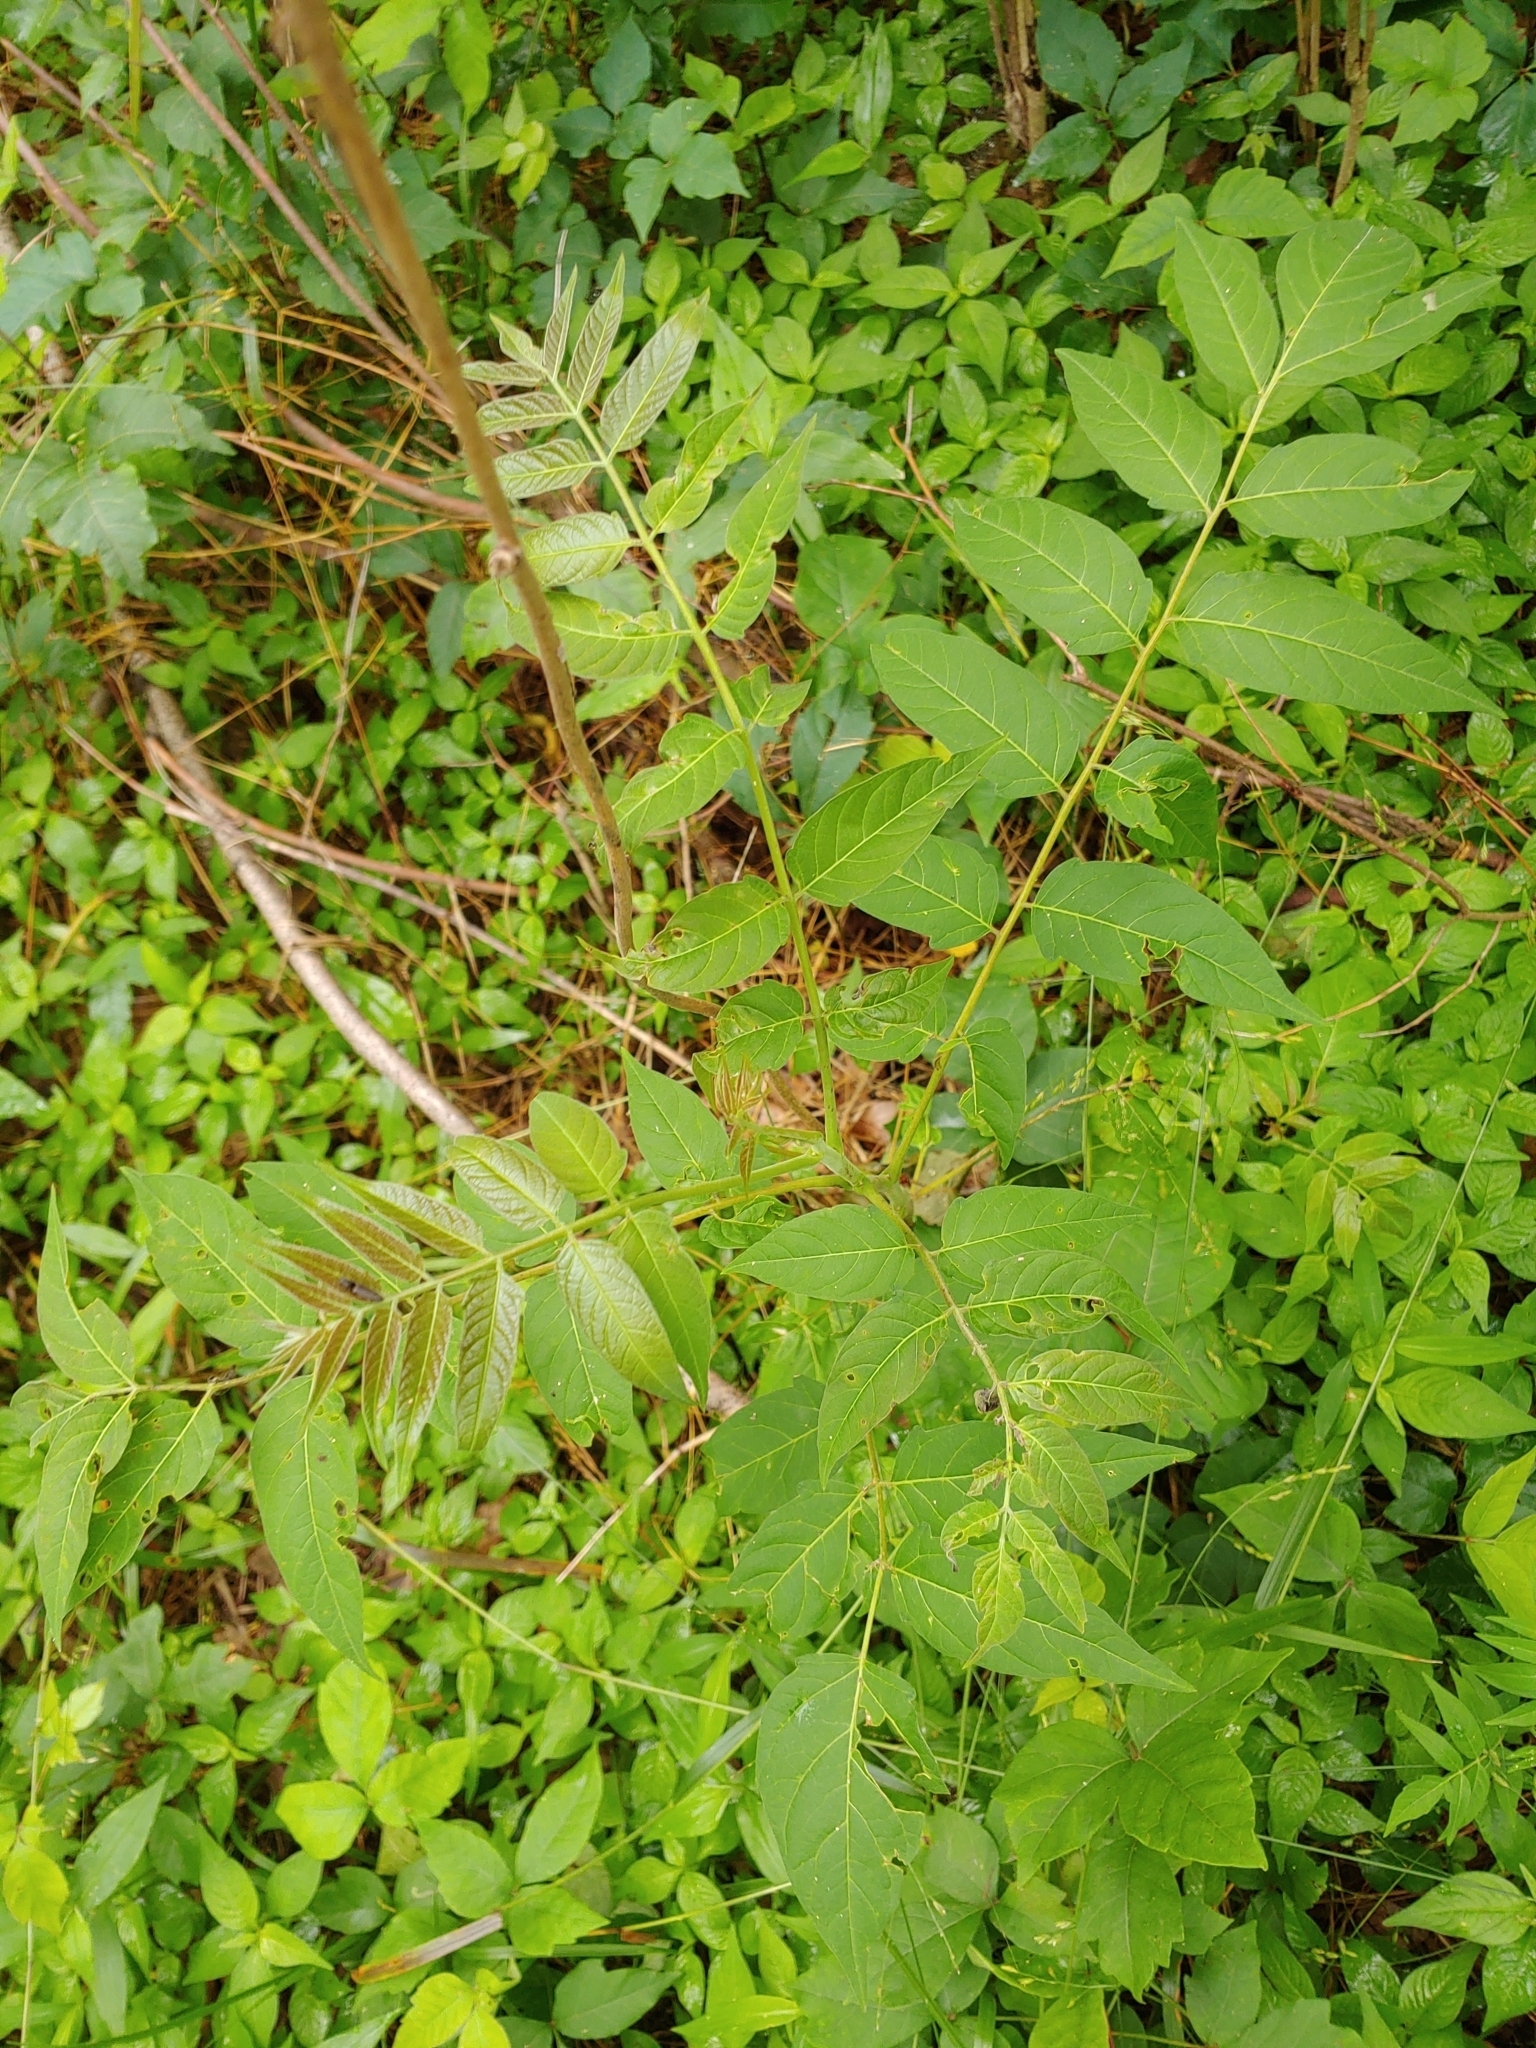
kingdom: Plantae
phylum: Tracheophyta
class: Magnoliopsida
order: Sapindales
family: Simaroubaceae
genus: Ailanthus
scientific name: Ailanthus altissima
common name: Tree-of-heaven
